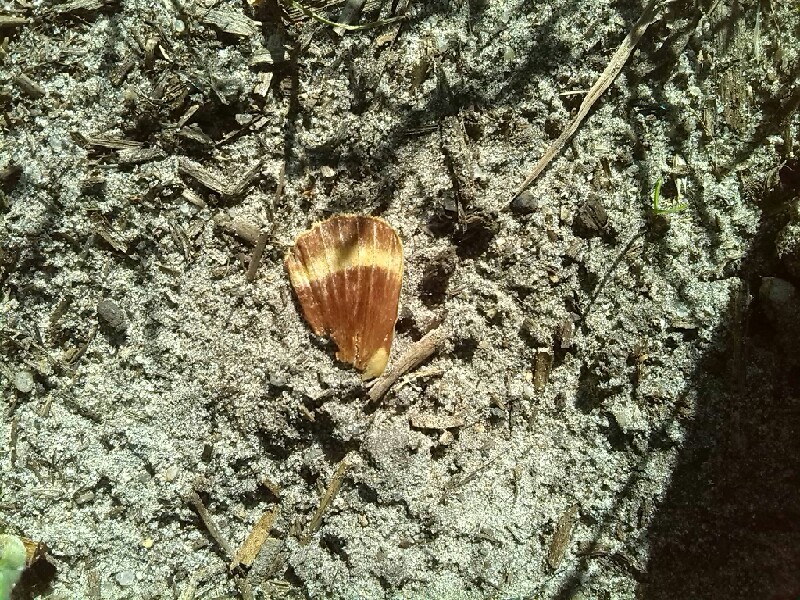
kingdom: Animalia
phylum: Arthropoda
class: Insecta
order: Lepidoptera
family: Lasiocampidae
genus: Lasiocampa
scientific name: Lasiocampa quercus
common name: Oak eggar
